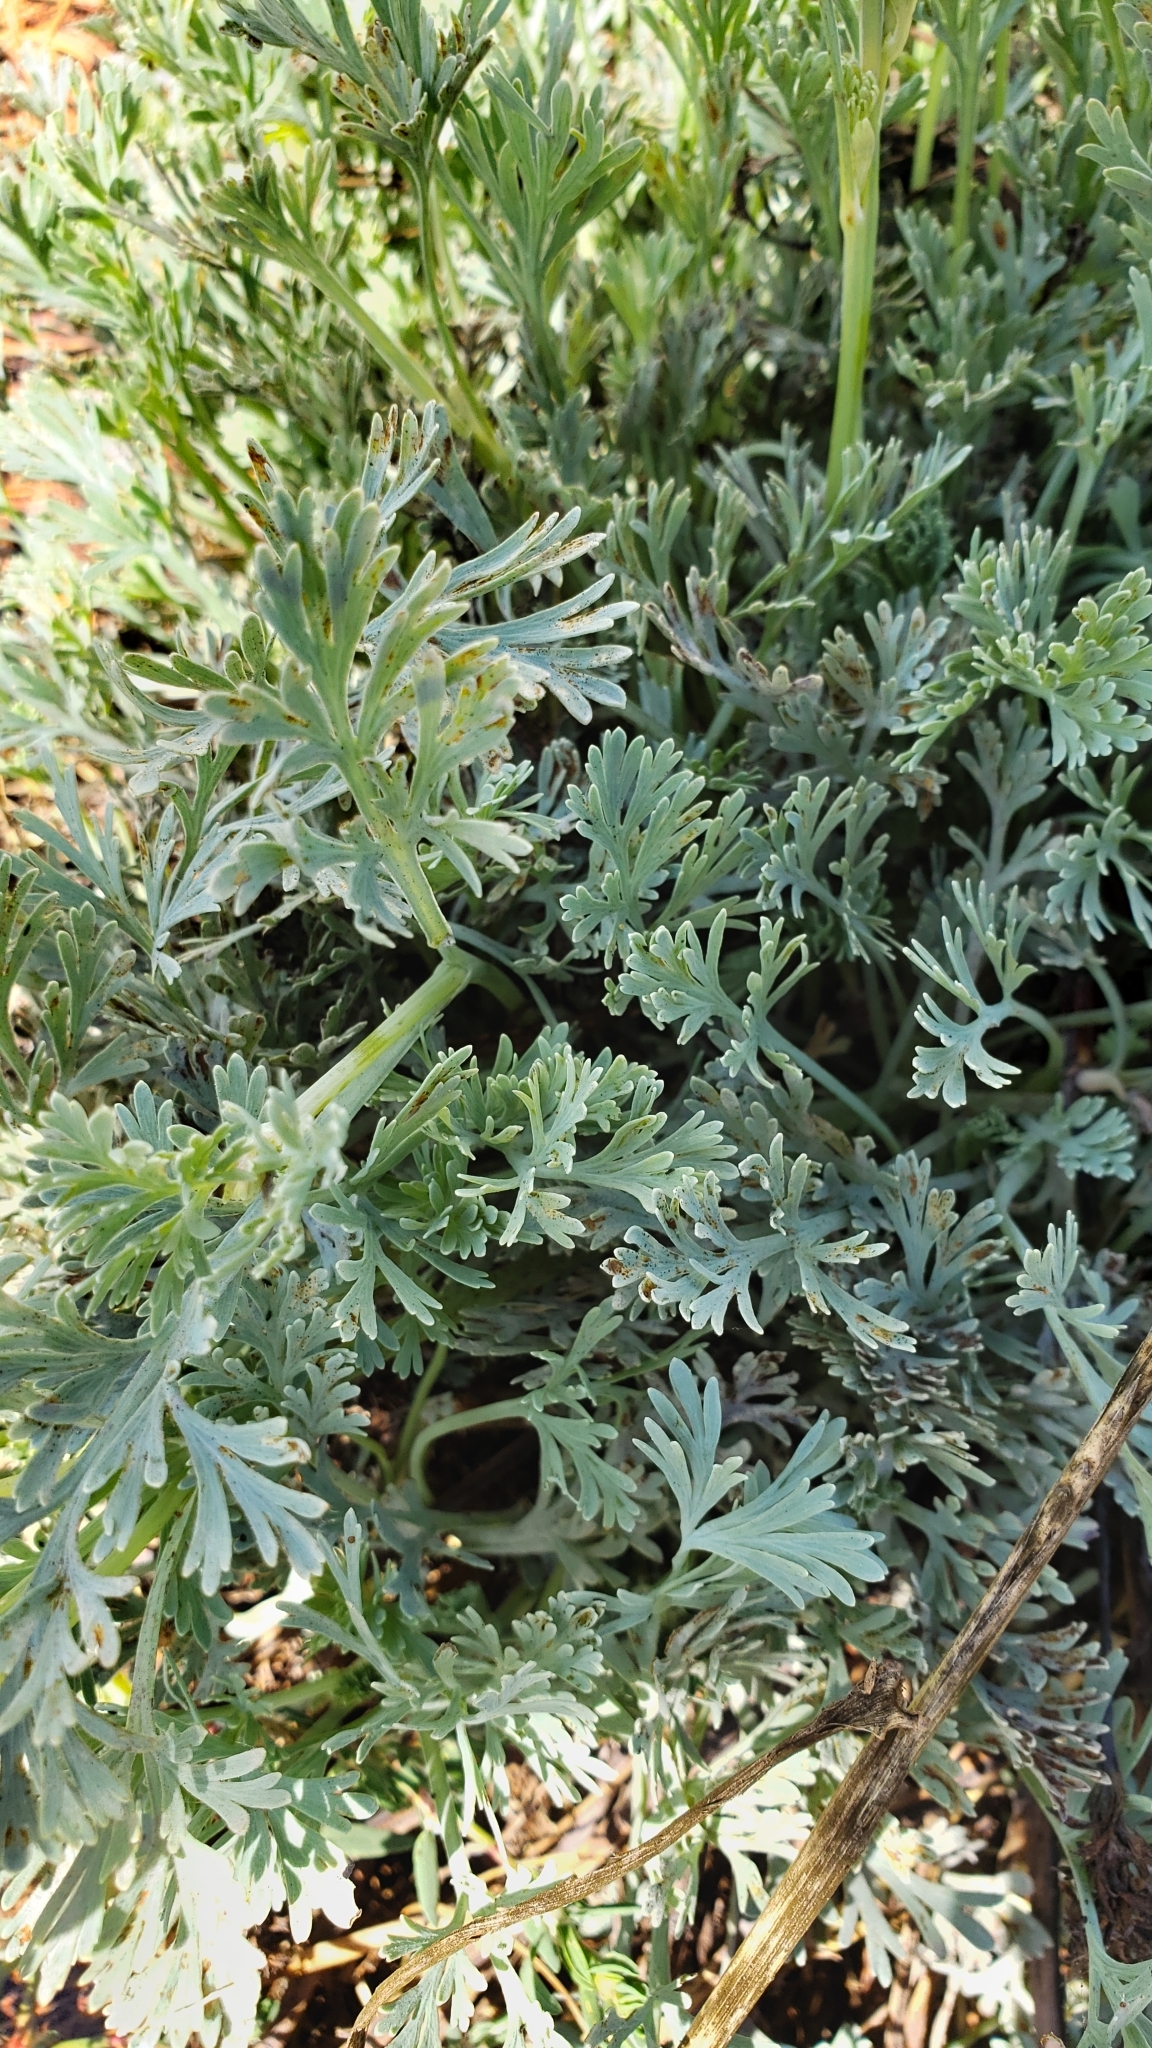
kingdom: Plantae
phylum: Tracheophyta
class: Magnoliopsida
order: Ranunculales
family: Papaveraceae
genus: Eschscholzia
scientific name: Eschscholzia californica
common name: California poppy
